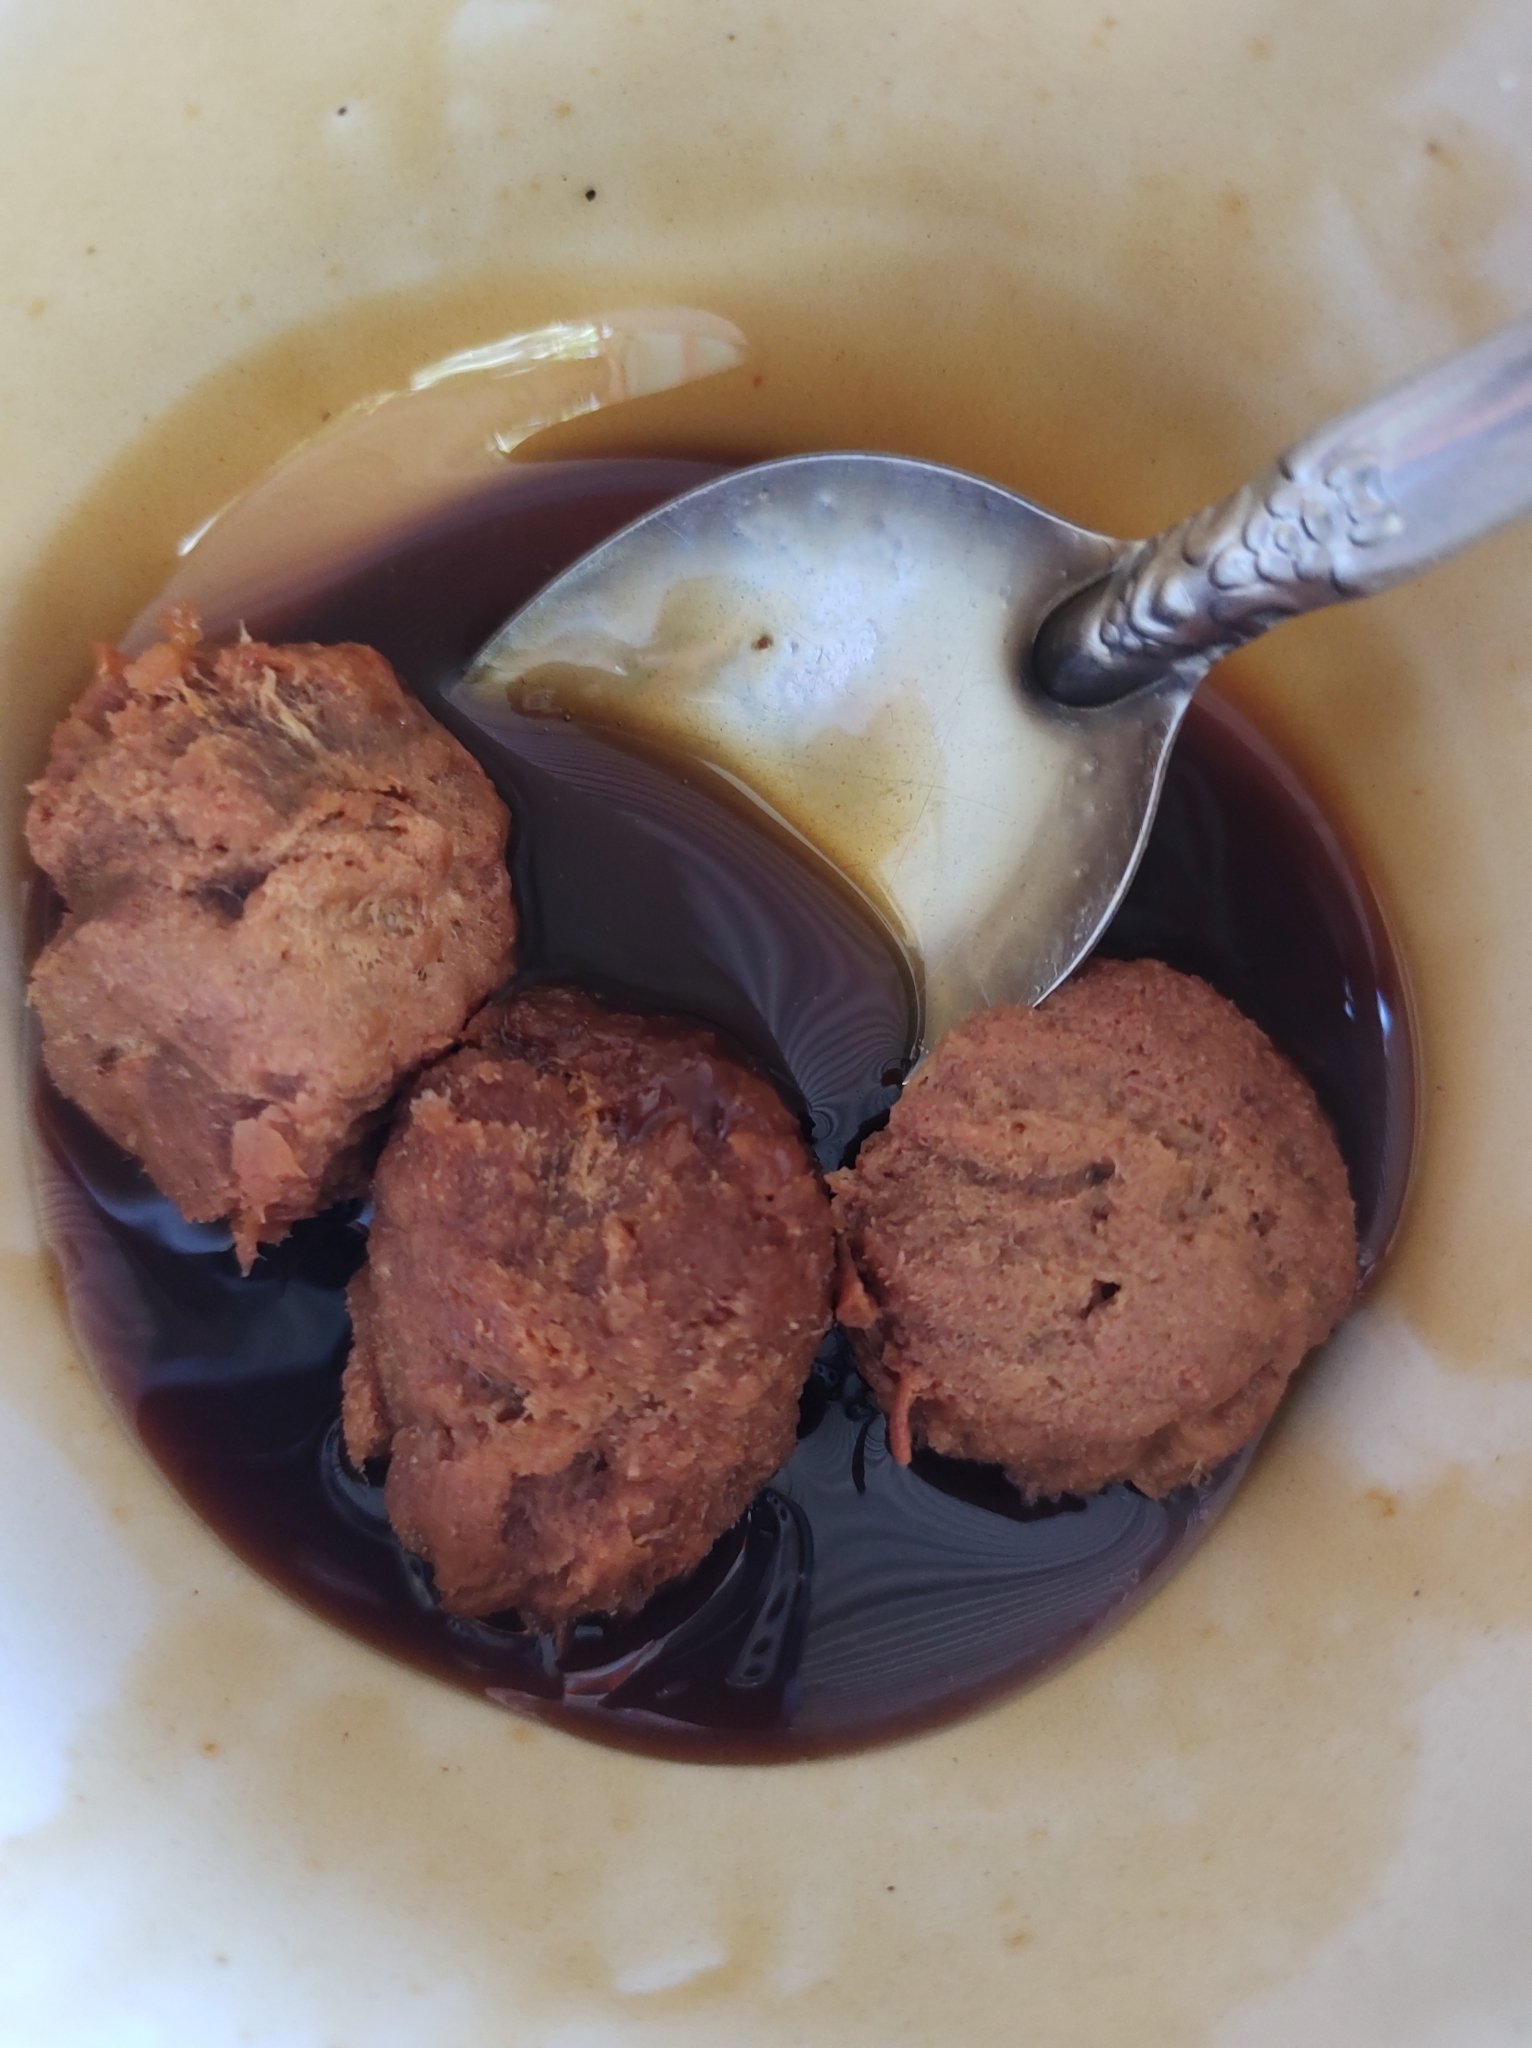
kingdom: Plantae
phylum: Tracheophyta
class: Liliopsida
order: Arecales
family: Arecaceae
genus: Acrocomia
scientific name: Acrocomia aculeata
